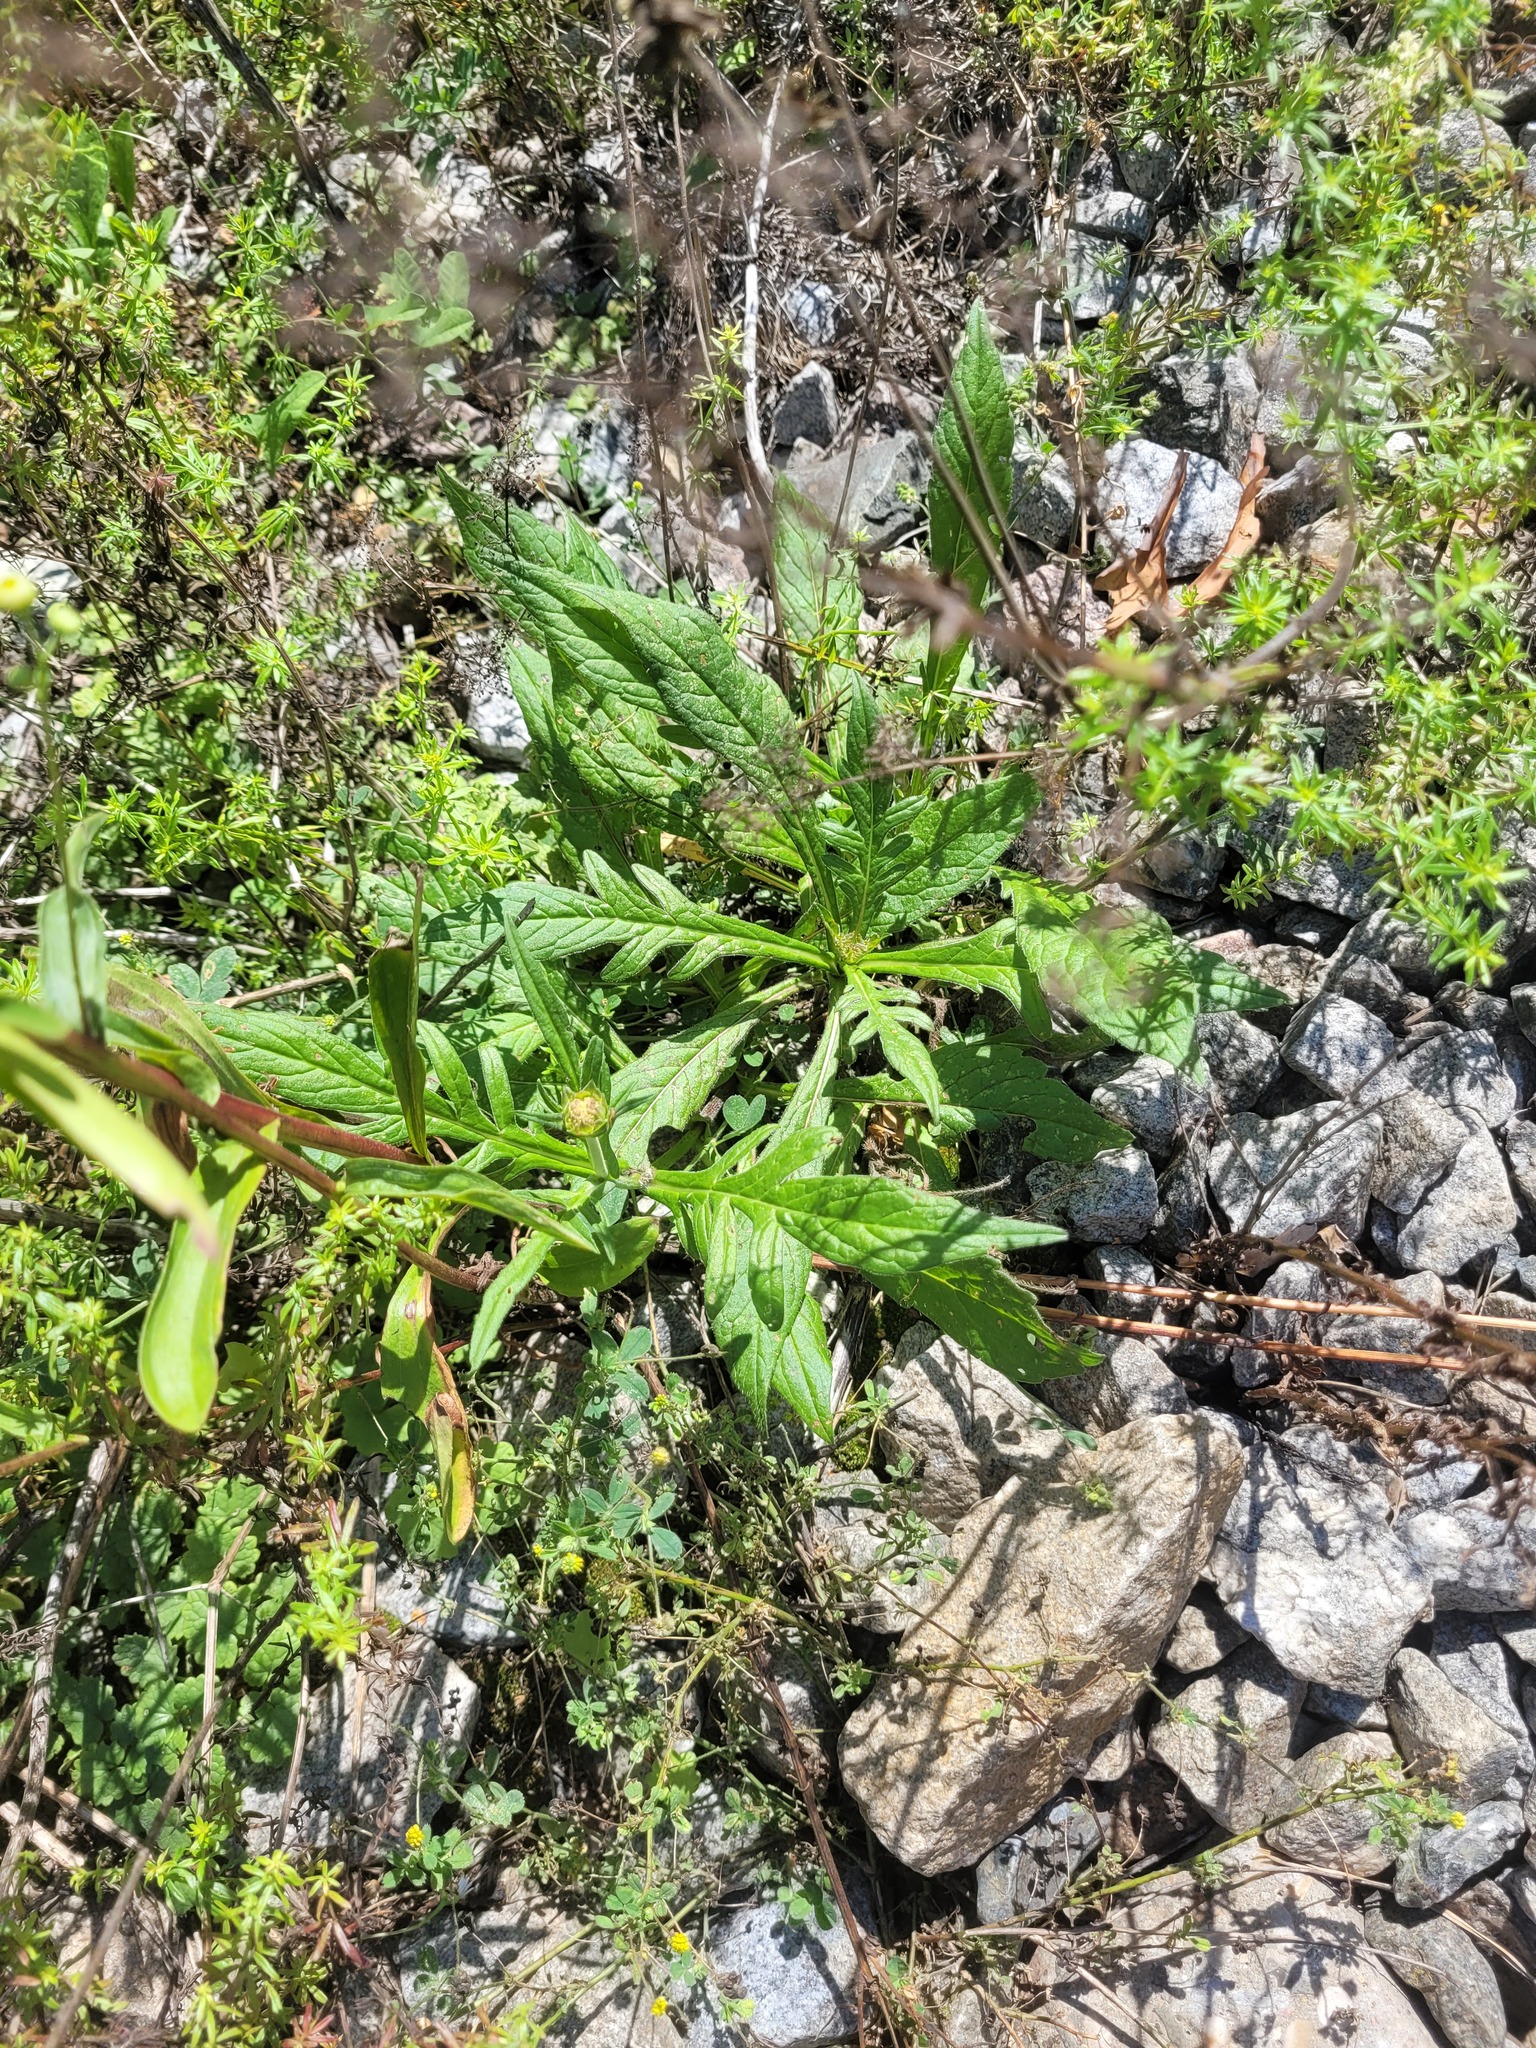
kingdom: Plantae
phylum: Tracheophyta
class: Magnoliopsida
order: Dipsacales
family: Caprifoliaceae
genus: Knautia
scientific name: Knautia arvensis
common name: Field scabiosa
